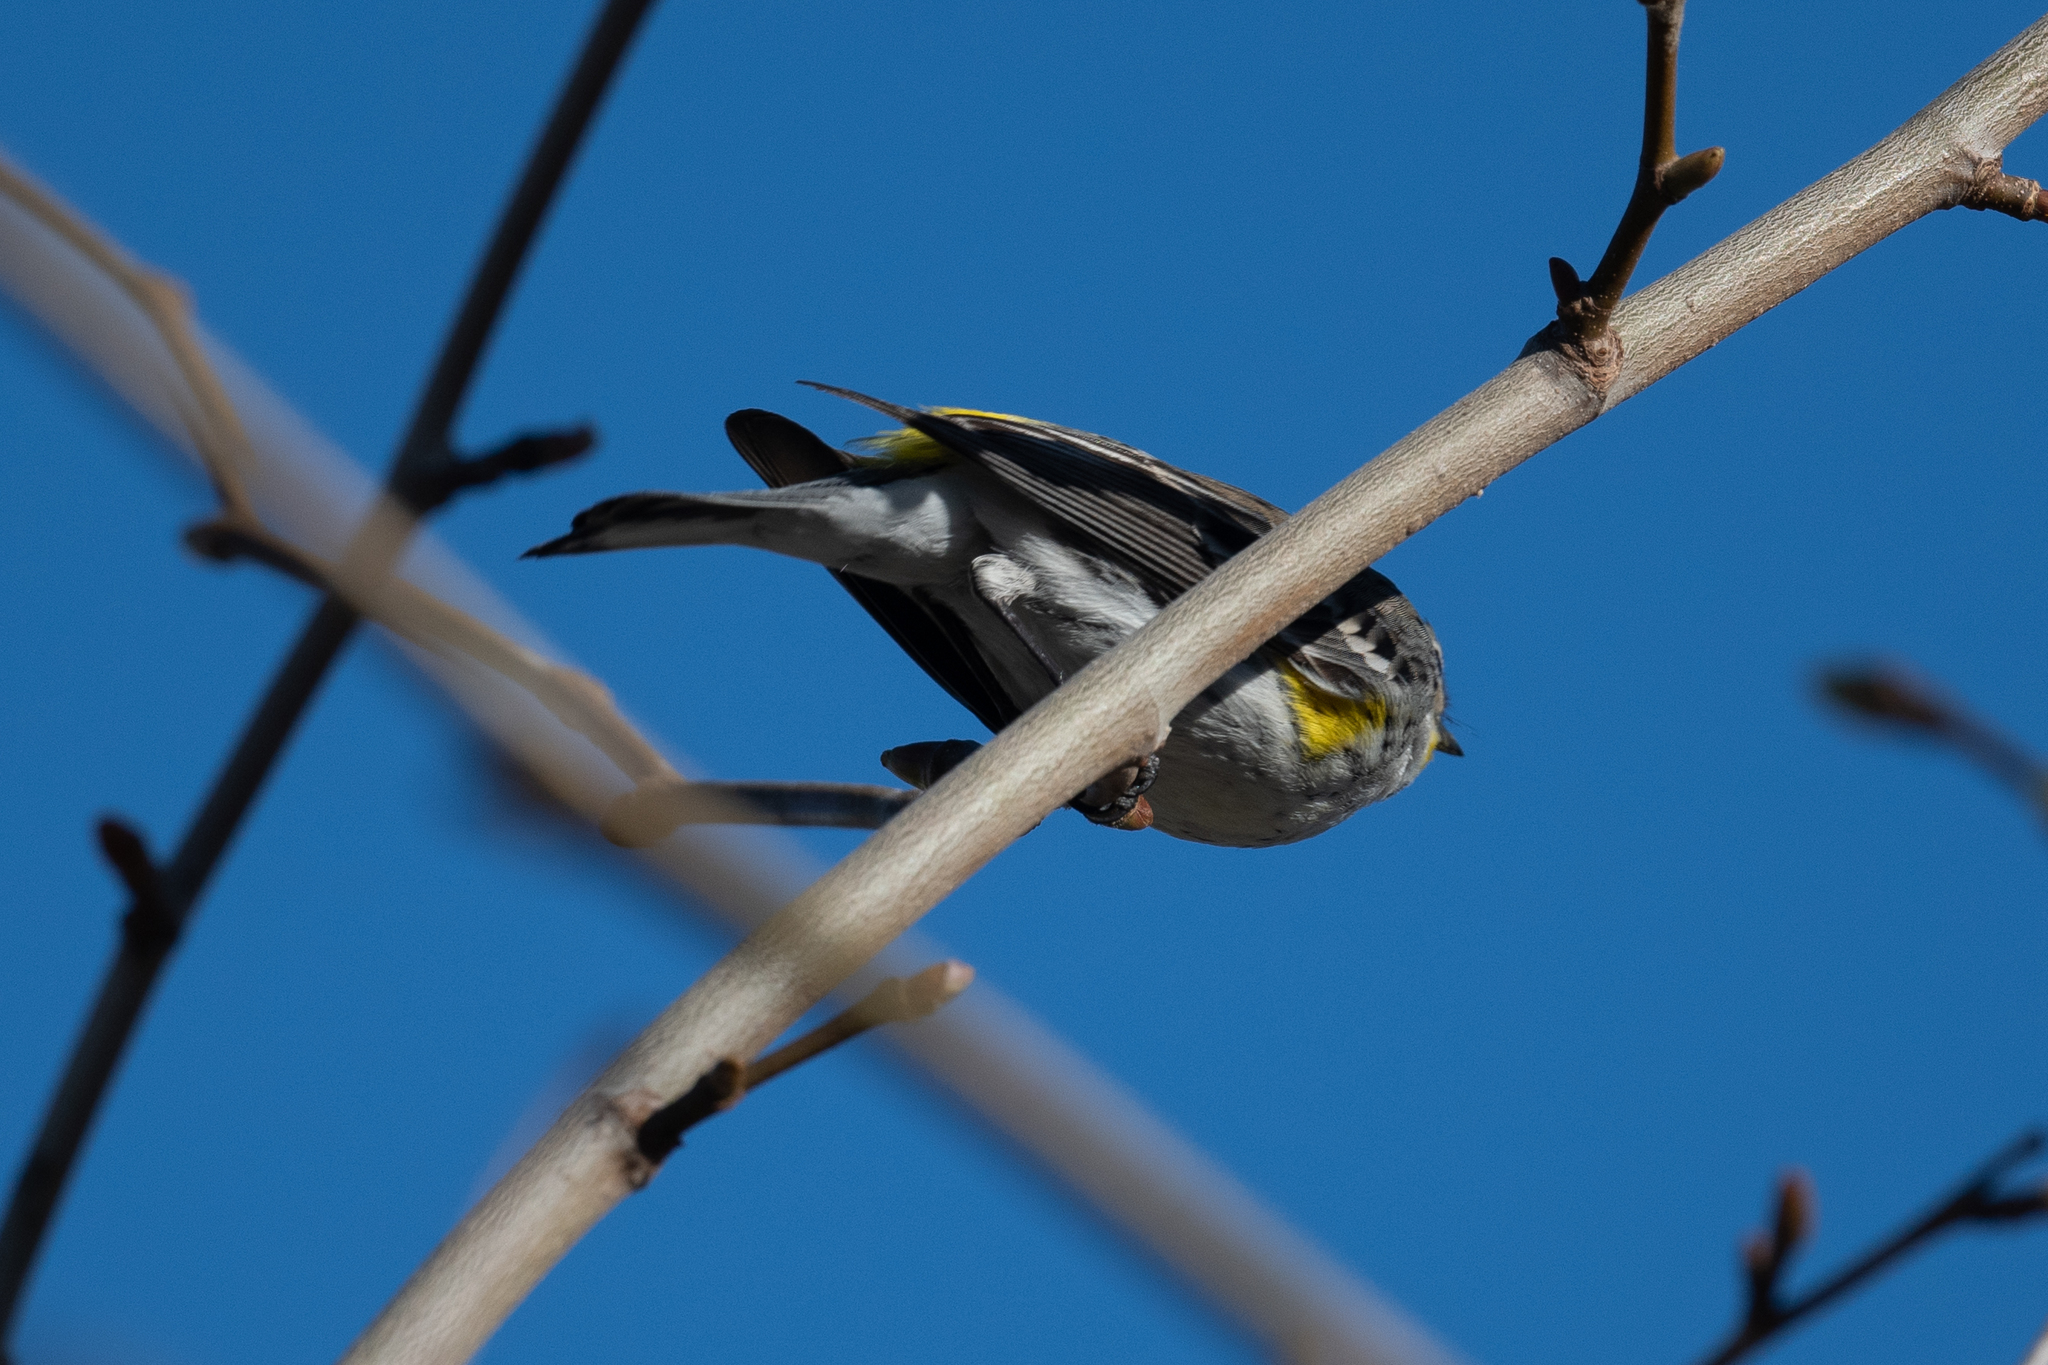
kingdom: Animalia
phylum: Chordata
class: Aves
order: Passeriformes
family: Parulidae
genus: Setophaga
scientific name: Setophaga coronata
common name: Myrtle warbler
